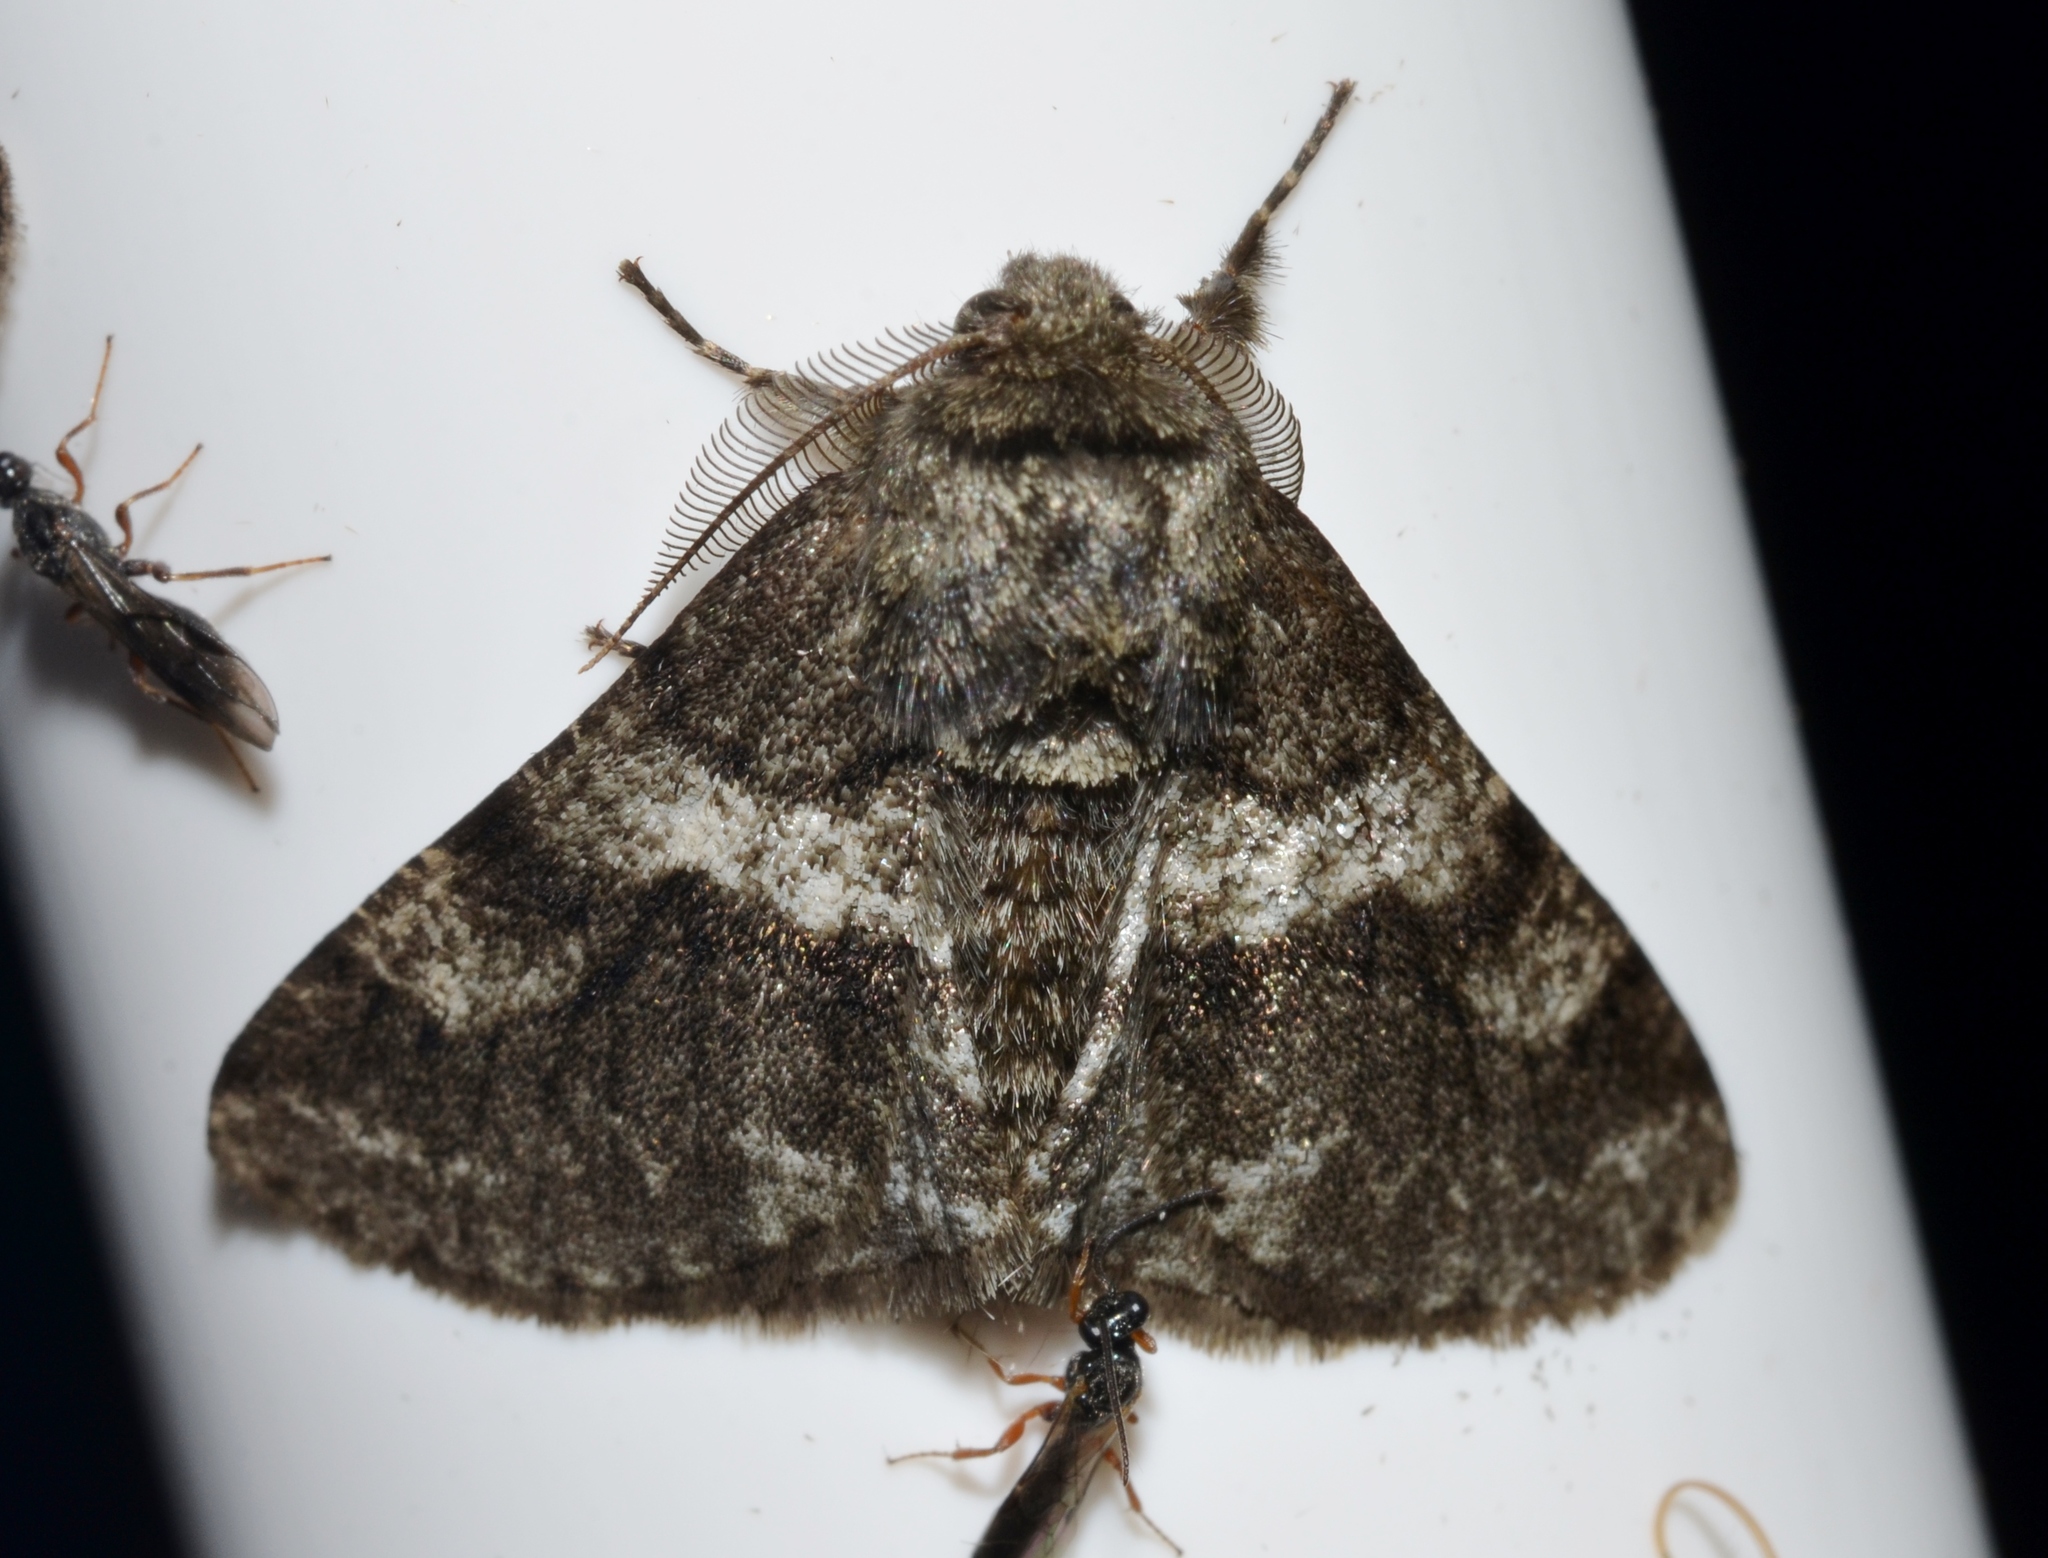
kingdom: Animalia
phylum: Arthropoda
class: Insecta
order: Lepidoptera
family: Geometridae
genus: Lycia
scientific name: Lycia ypsilon
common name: Wooly gray
